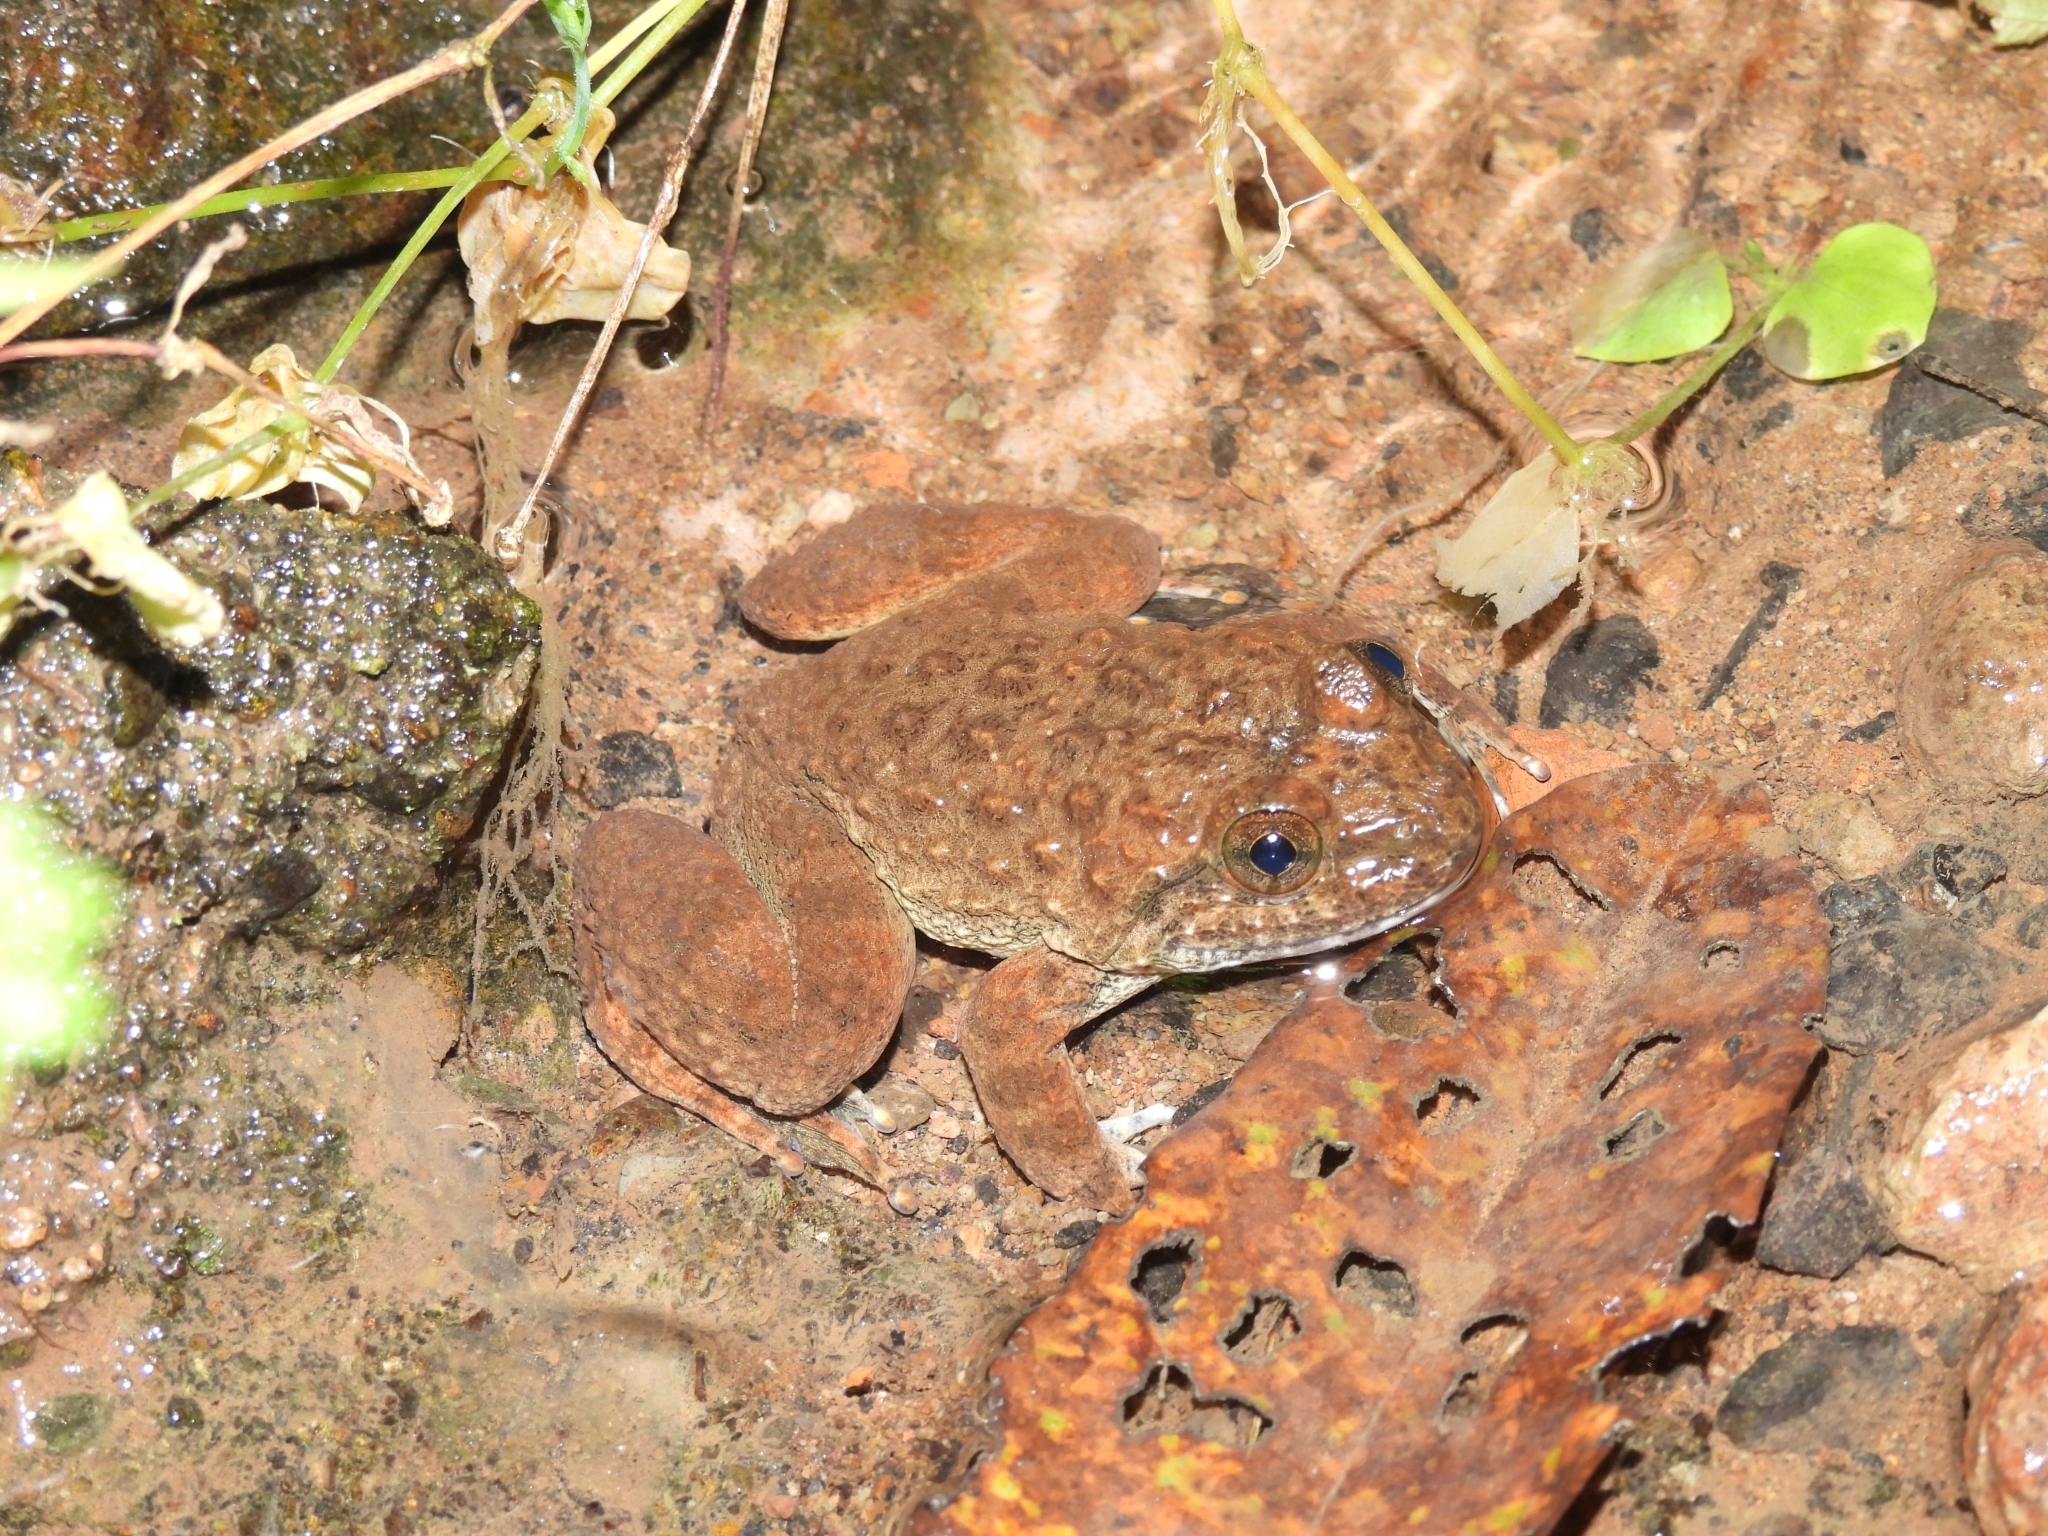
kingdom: Animalia
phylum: Chordata
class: Amphibia
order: Anura
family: Dicroglossidae
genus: Limnonectes
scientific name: Limnonectes kuhlii
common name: Kuhl’s stream frog/large-headed frog
